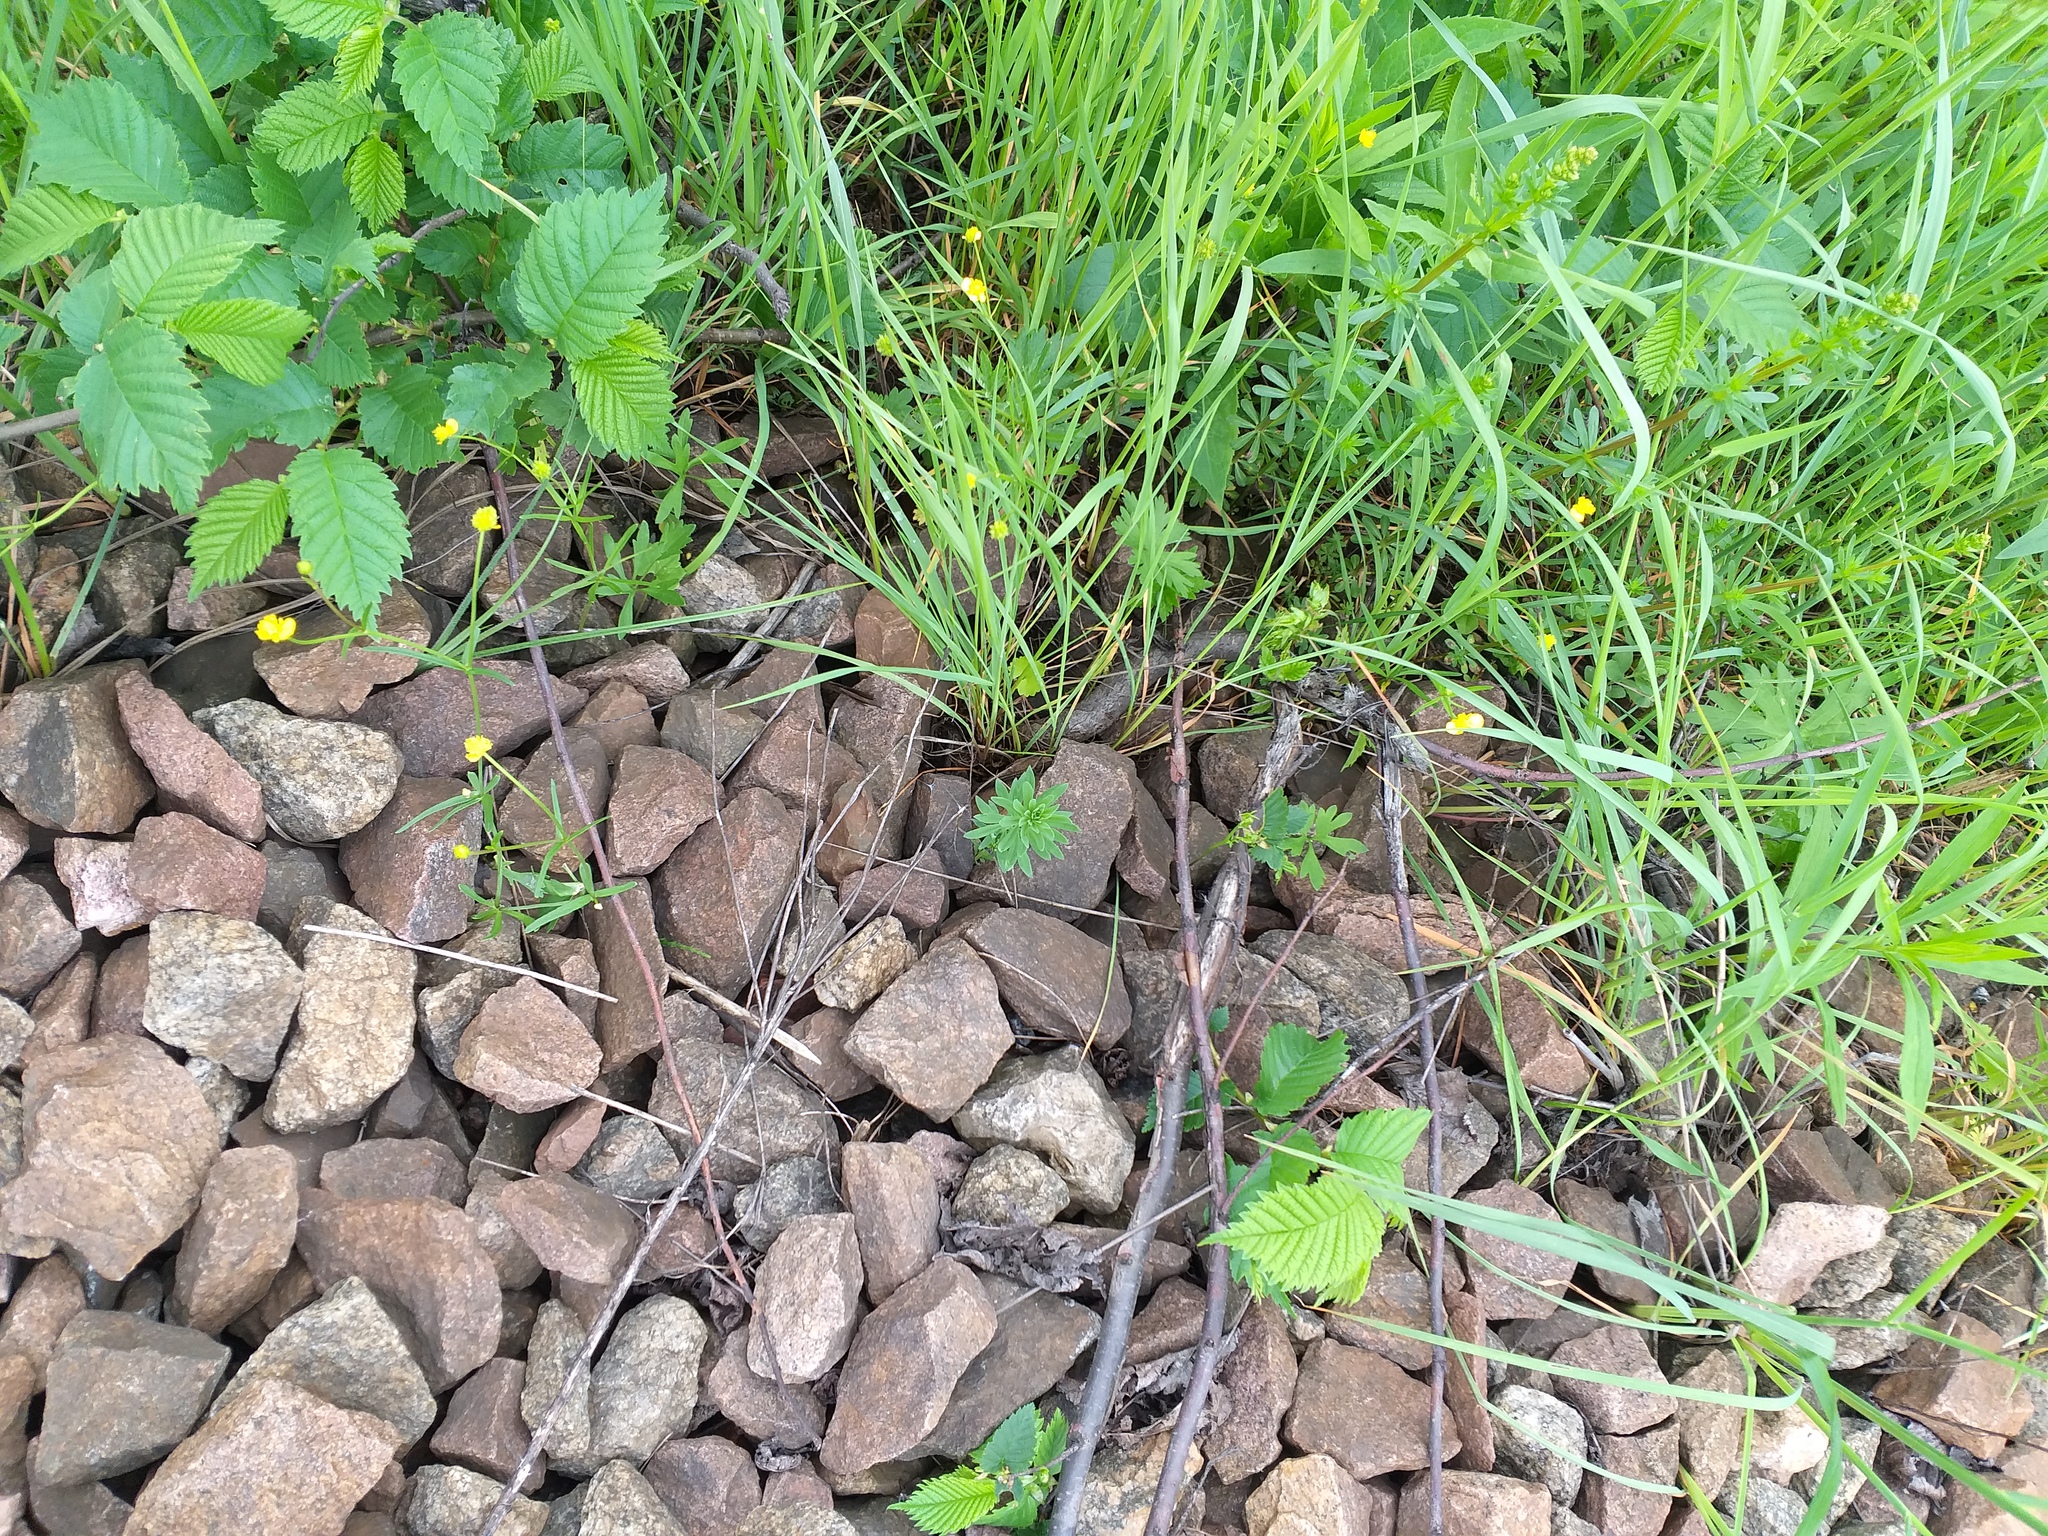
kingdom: Plantae
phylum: Tracheophyta
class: Magnoliopsida
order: Lamiales
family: Plantaginaceae
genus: Linaria
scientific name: Linaria vulgaris
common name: Butter and eggs
